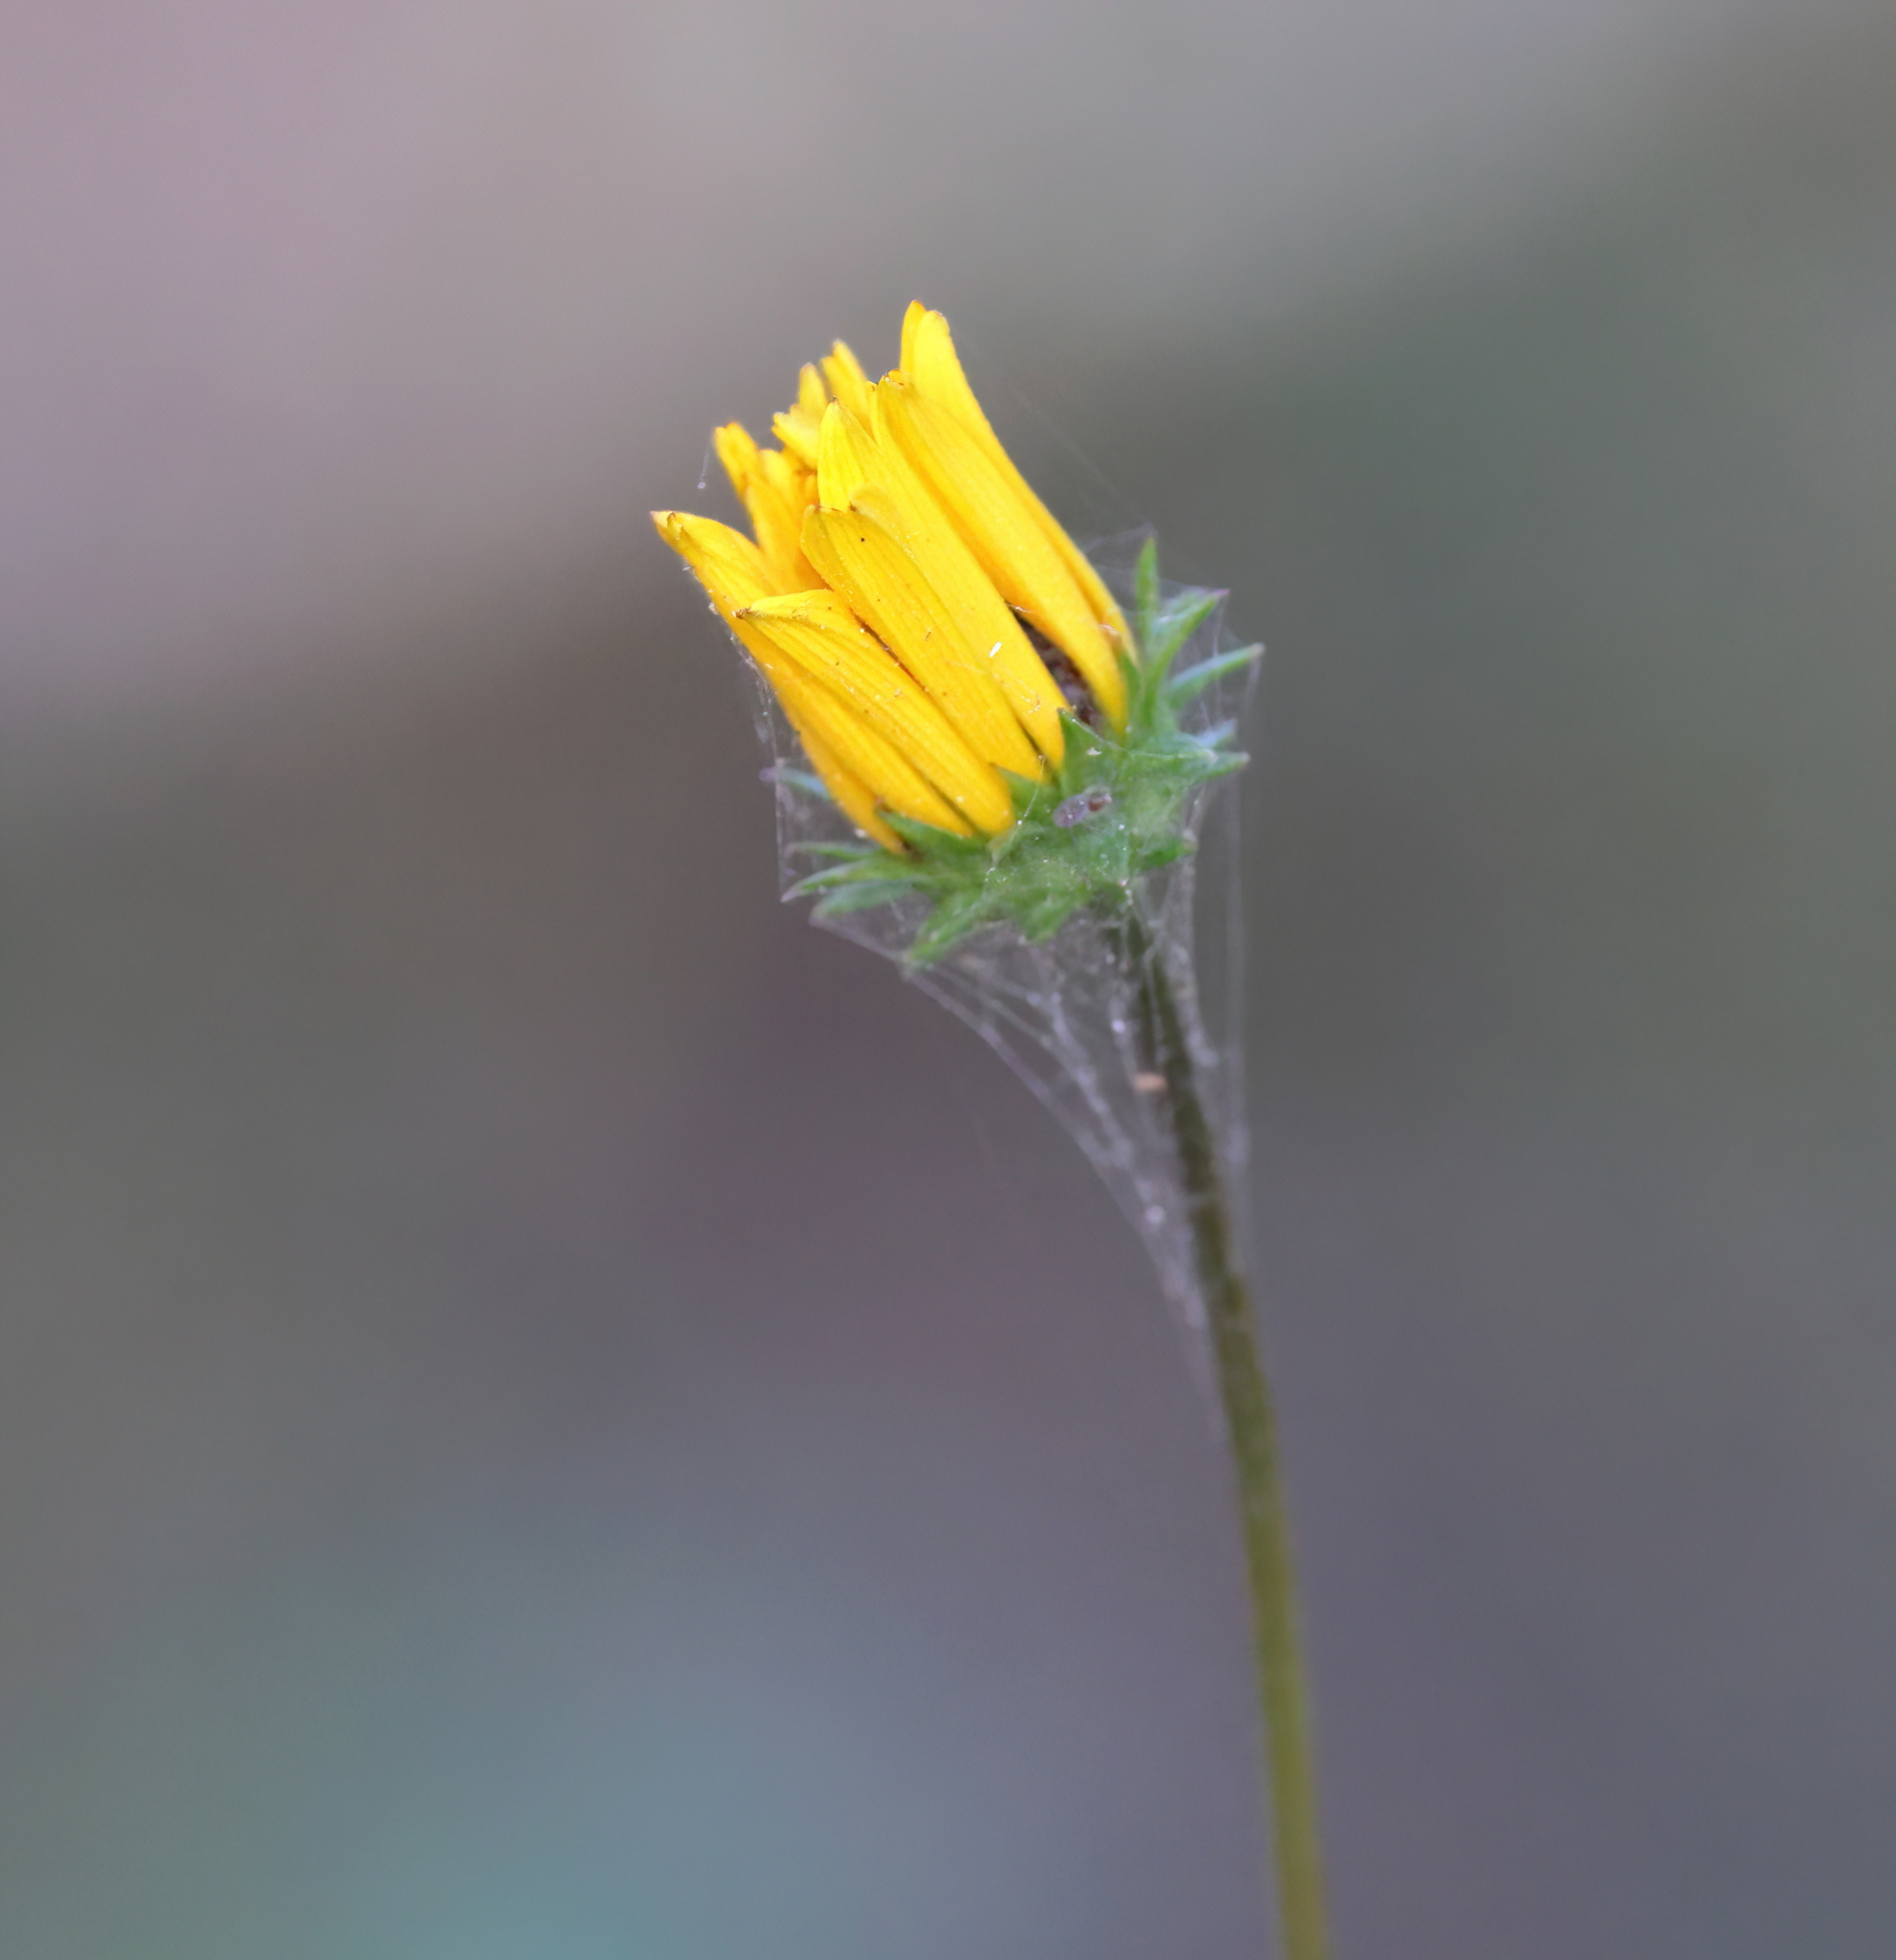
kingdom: Plantae
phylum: Tracheophyta
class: Magnoliopsida
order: Asterales
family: Asteraceae
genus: Helianthus
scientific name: Helianthus angustifolius
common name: Swamp sunflower
